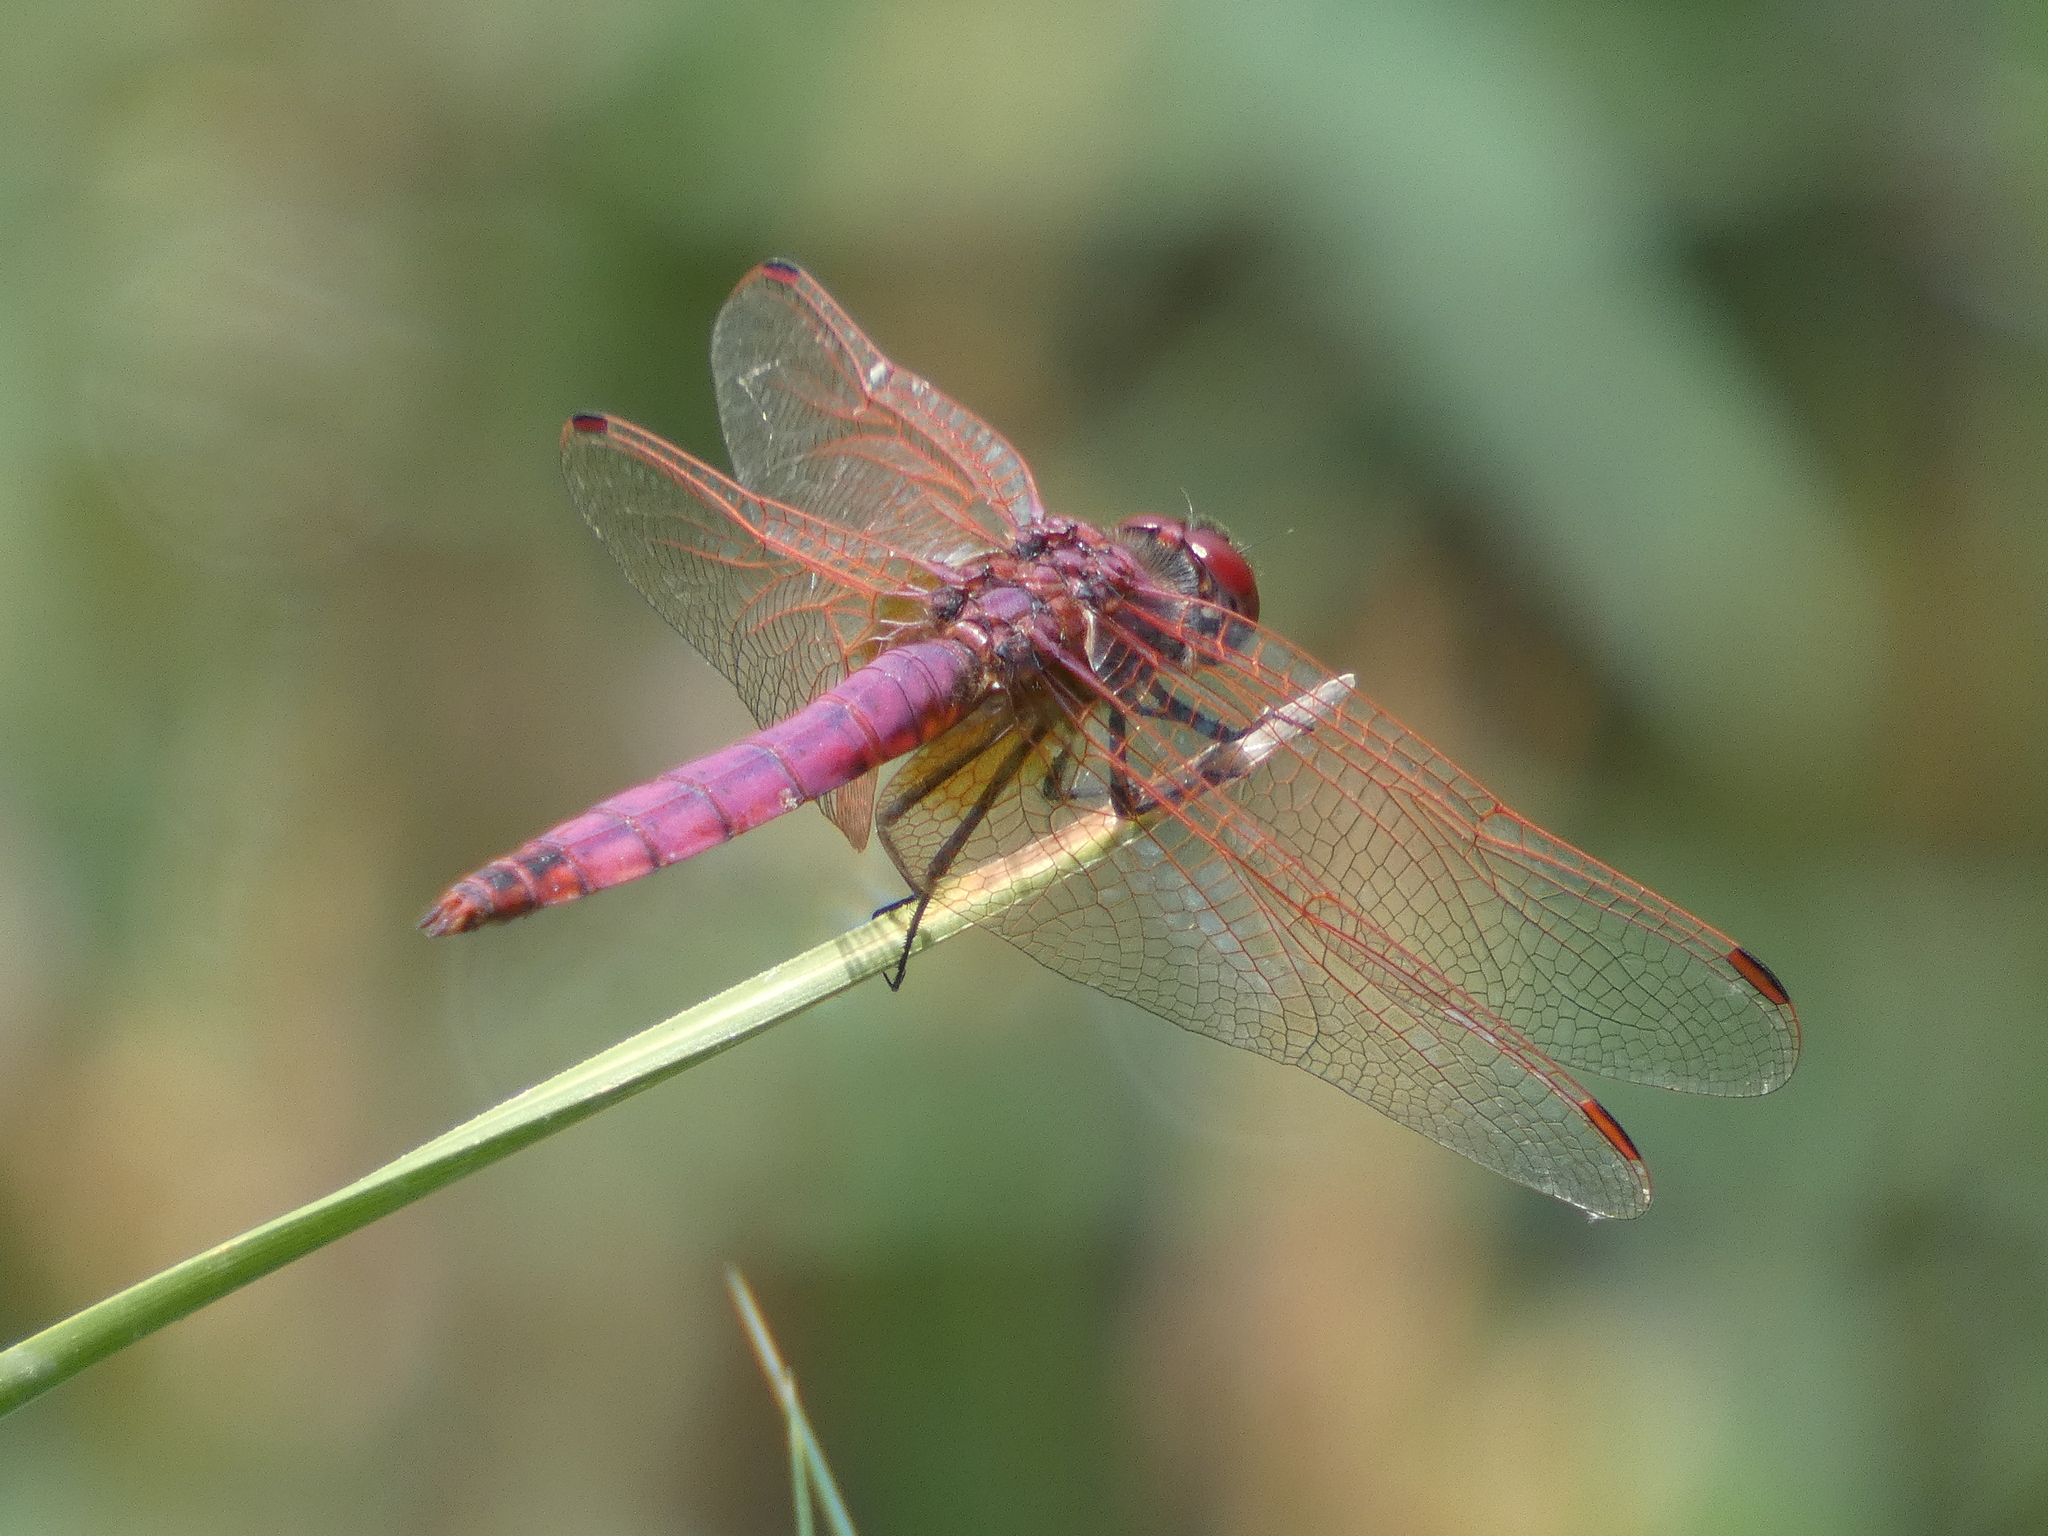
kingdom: Animalia
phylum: Arthropoda
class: Insecta
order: Odonata
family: Libellulidae
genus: Trithemis
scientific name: Trithemis annulata
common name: Violet dropwing
